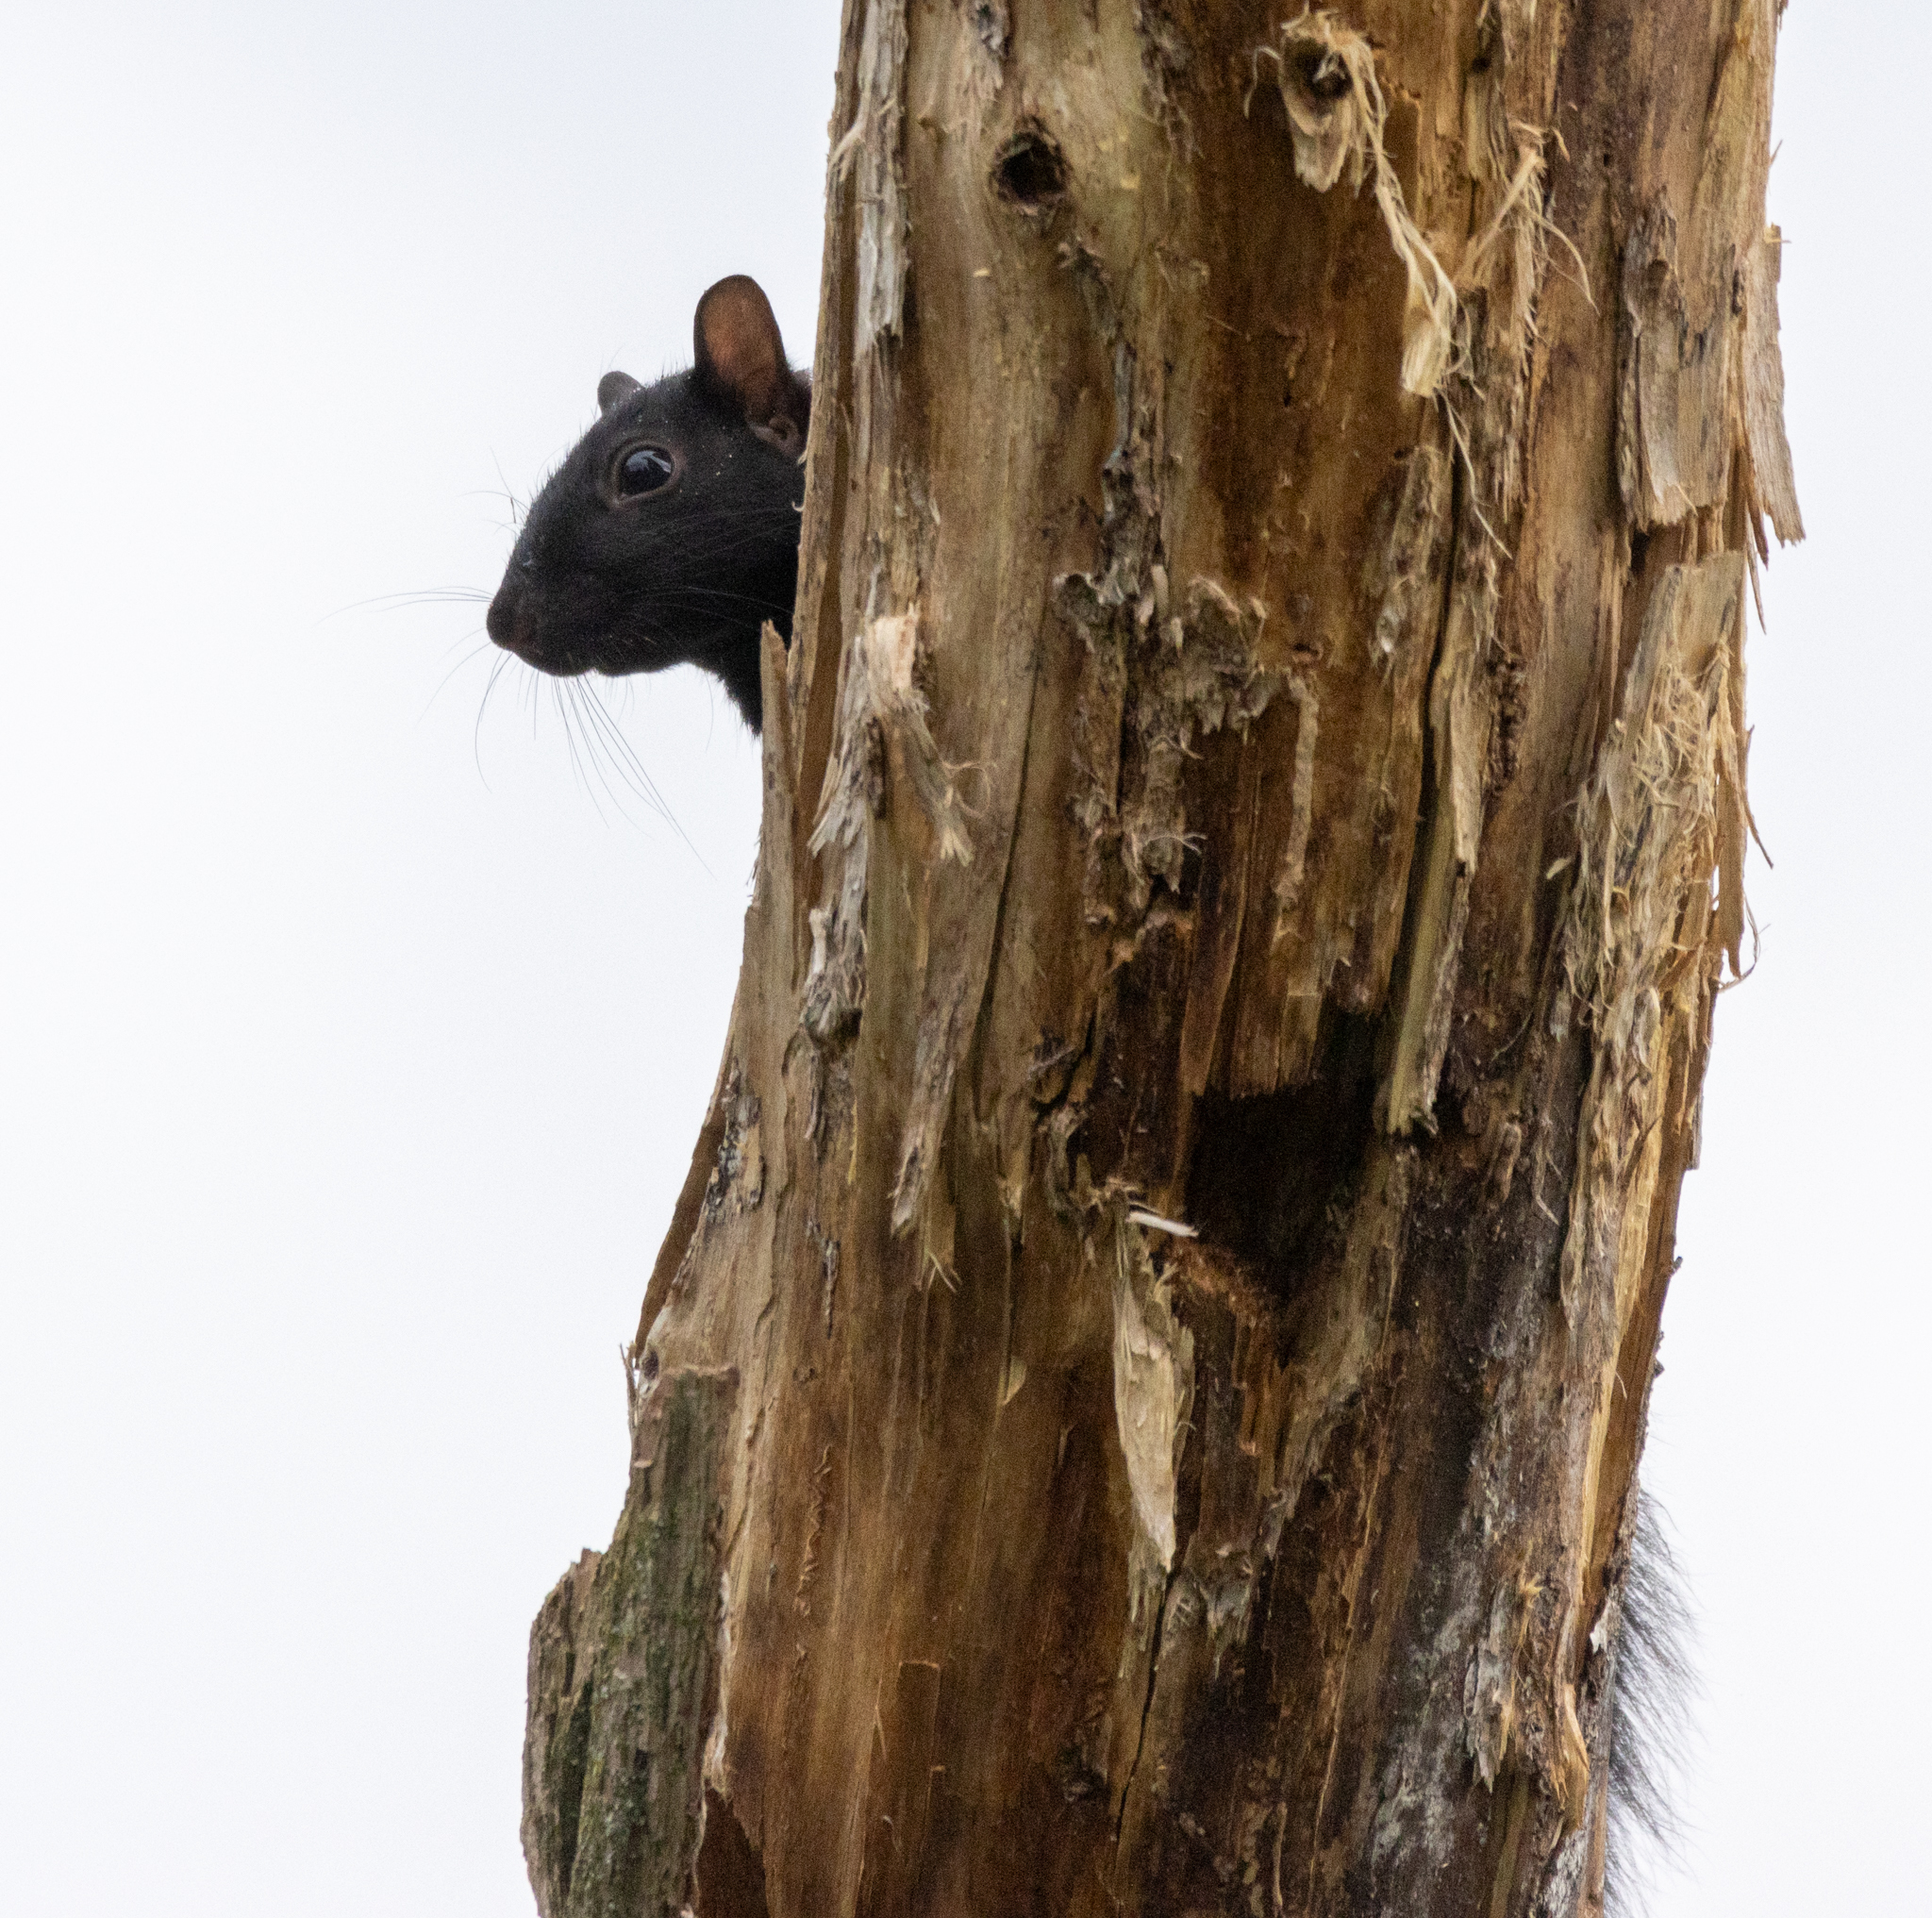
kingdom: Animalia
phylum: Chordata
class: Mammalia
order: Rodentia
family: Sciuridae
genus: Sciurus
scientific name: Sciurus carolinensis
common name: Eastern gray squirrel
